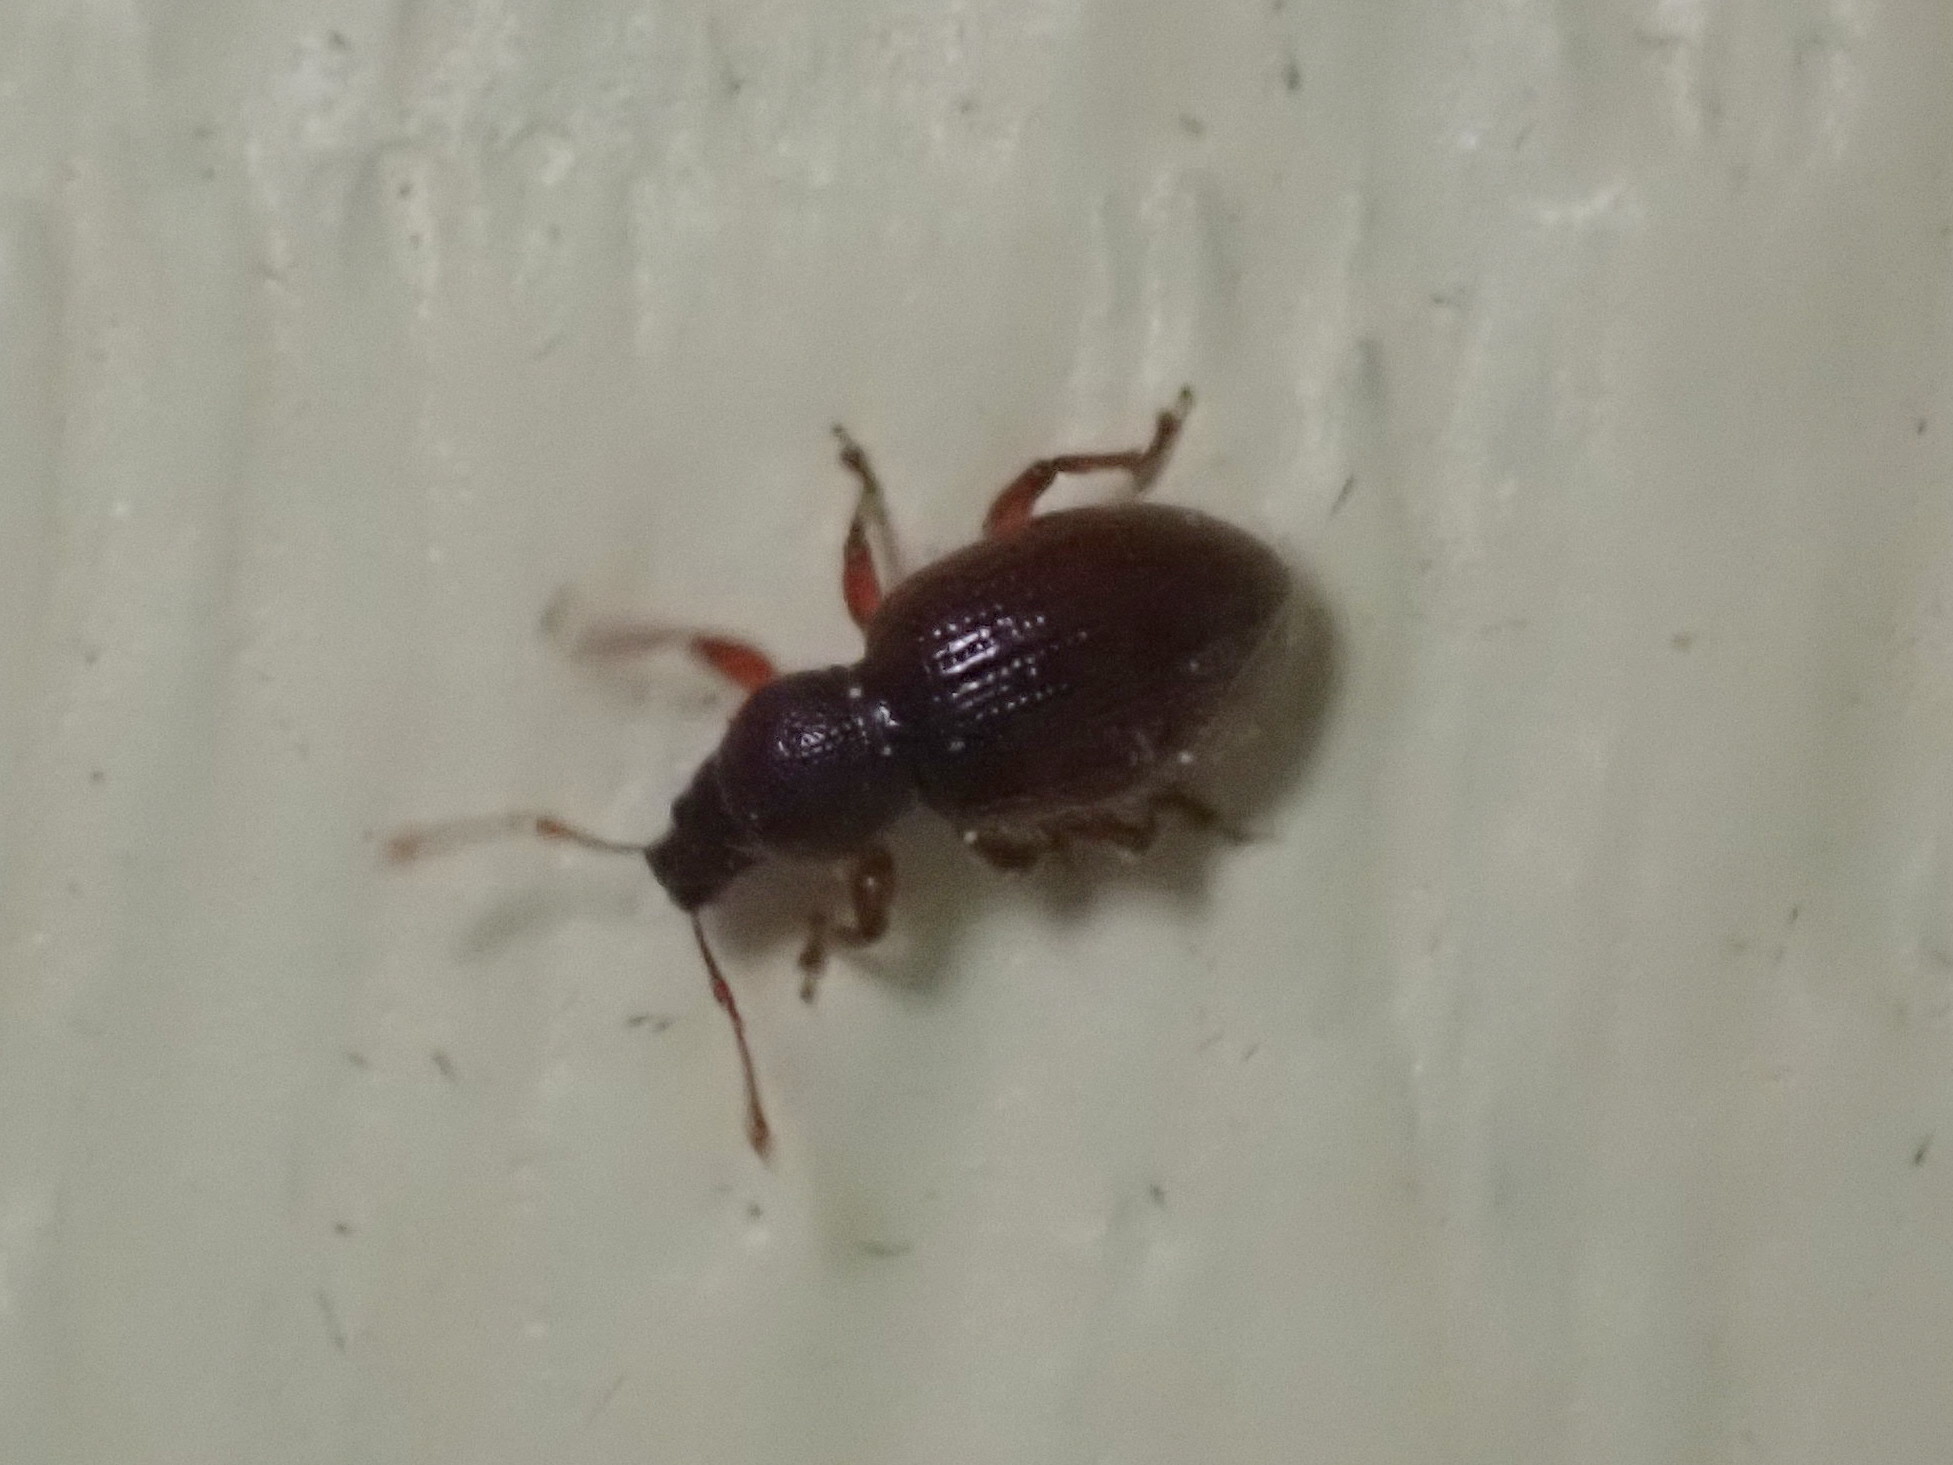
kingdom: Animalia
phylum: Arthropoda
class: Insecta
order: Coleoptera
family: Curculionidae
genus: Exomias
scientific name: Exomias pellucidus
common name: Hairy spider weevil
